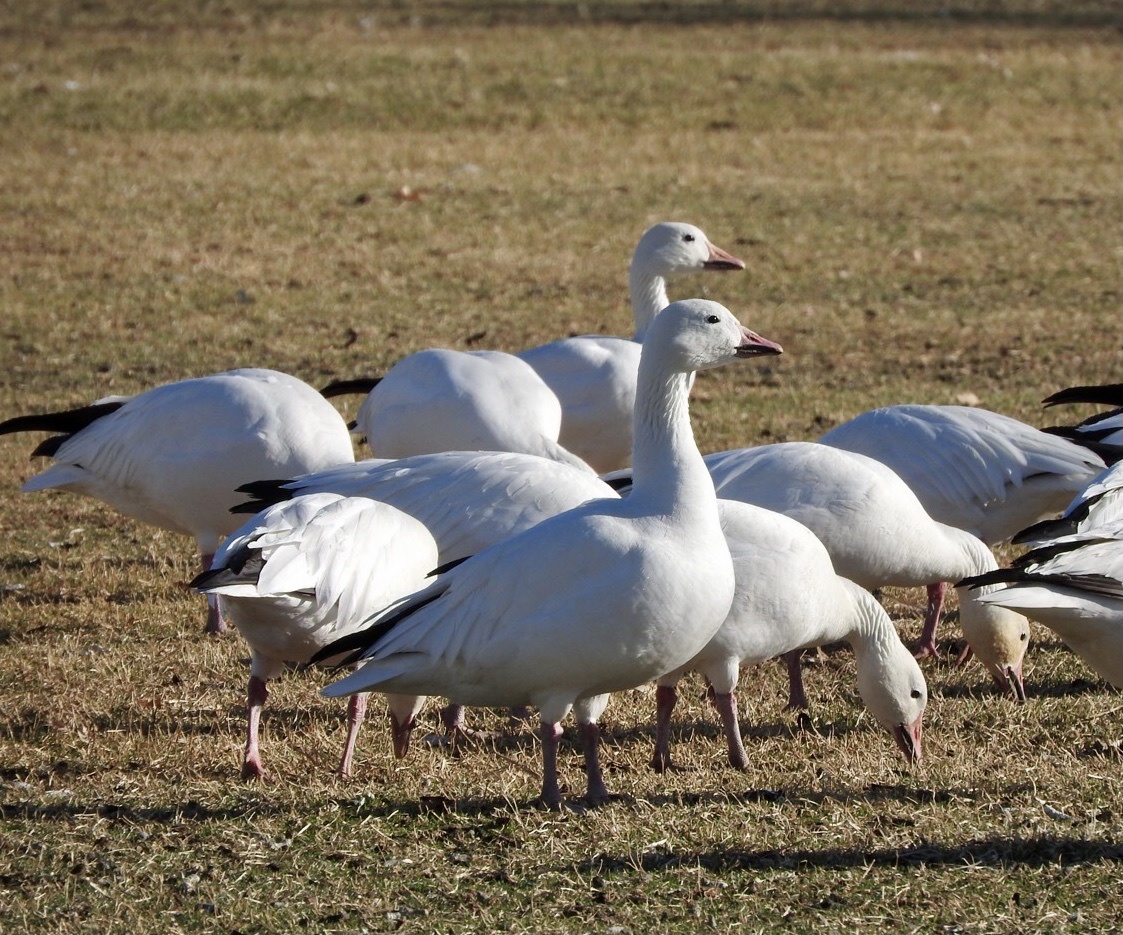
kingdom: Animalia
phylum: Chordata
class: Aves
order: Anseriformes
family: Anatidae
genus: Anser
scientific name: Anser caerulescens
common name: Snow goose
